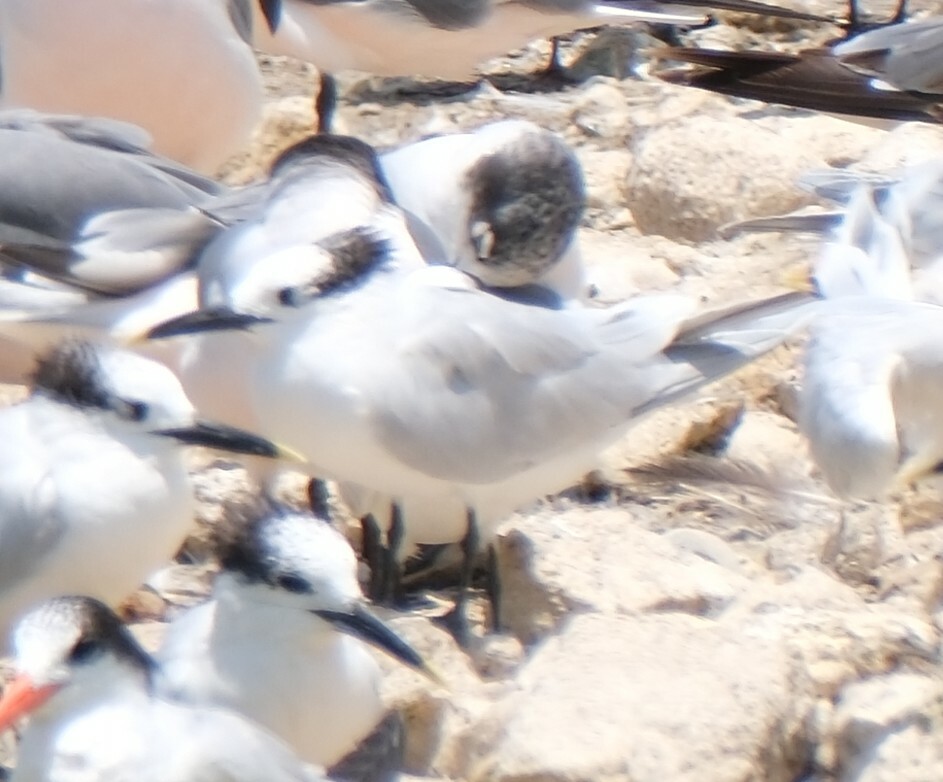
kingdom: Animalia
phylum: Chordata
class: Aves
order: Charadriiformes
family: Laridae
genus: Thalasseus
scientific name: Thalasseus sandvicensis
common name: Sandwich tern
